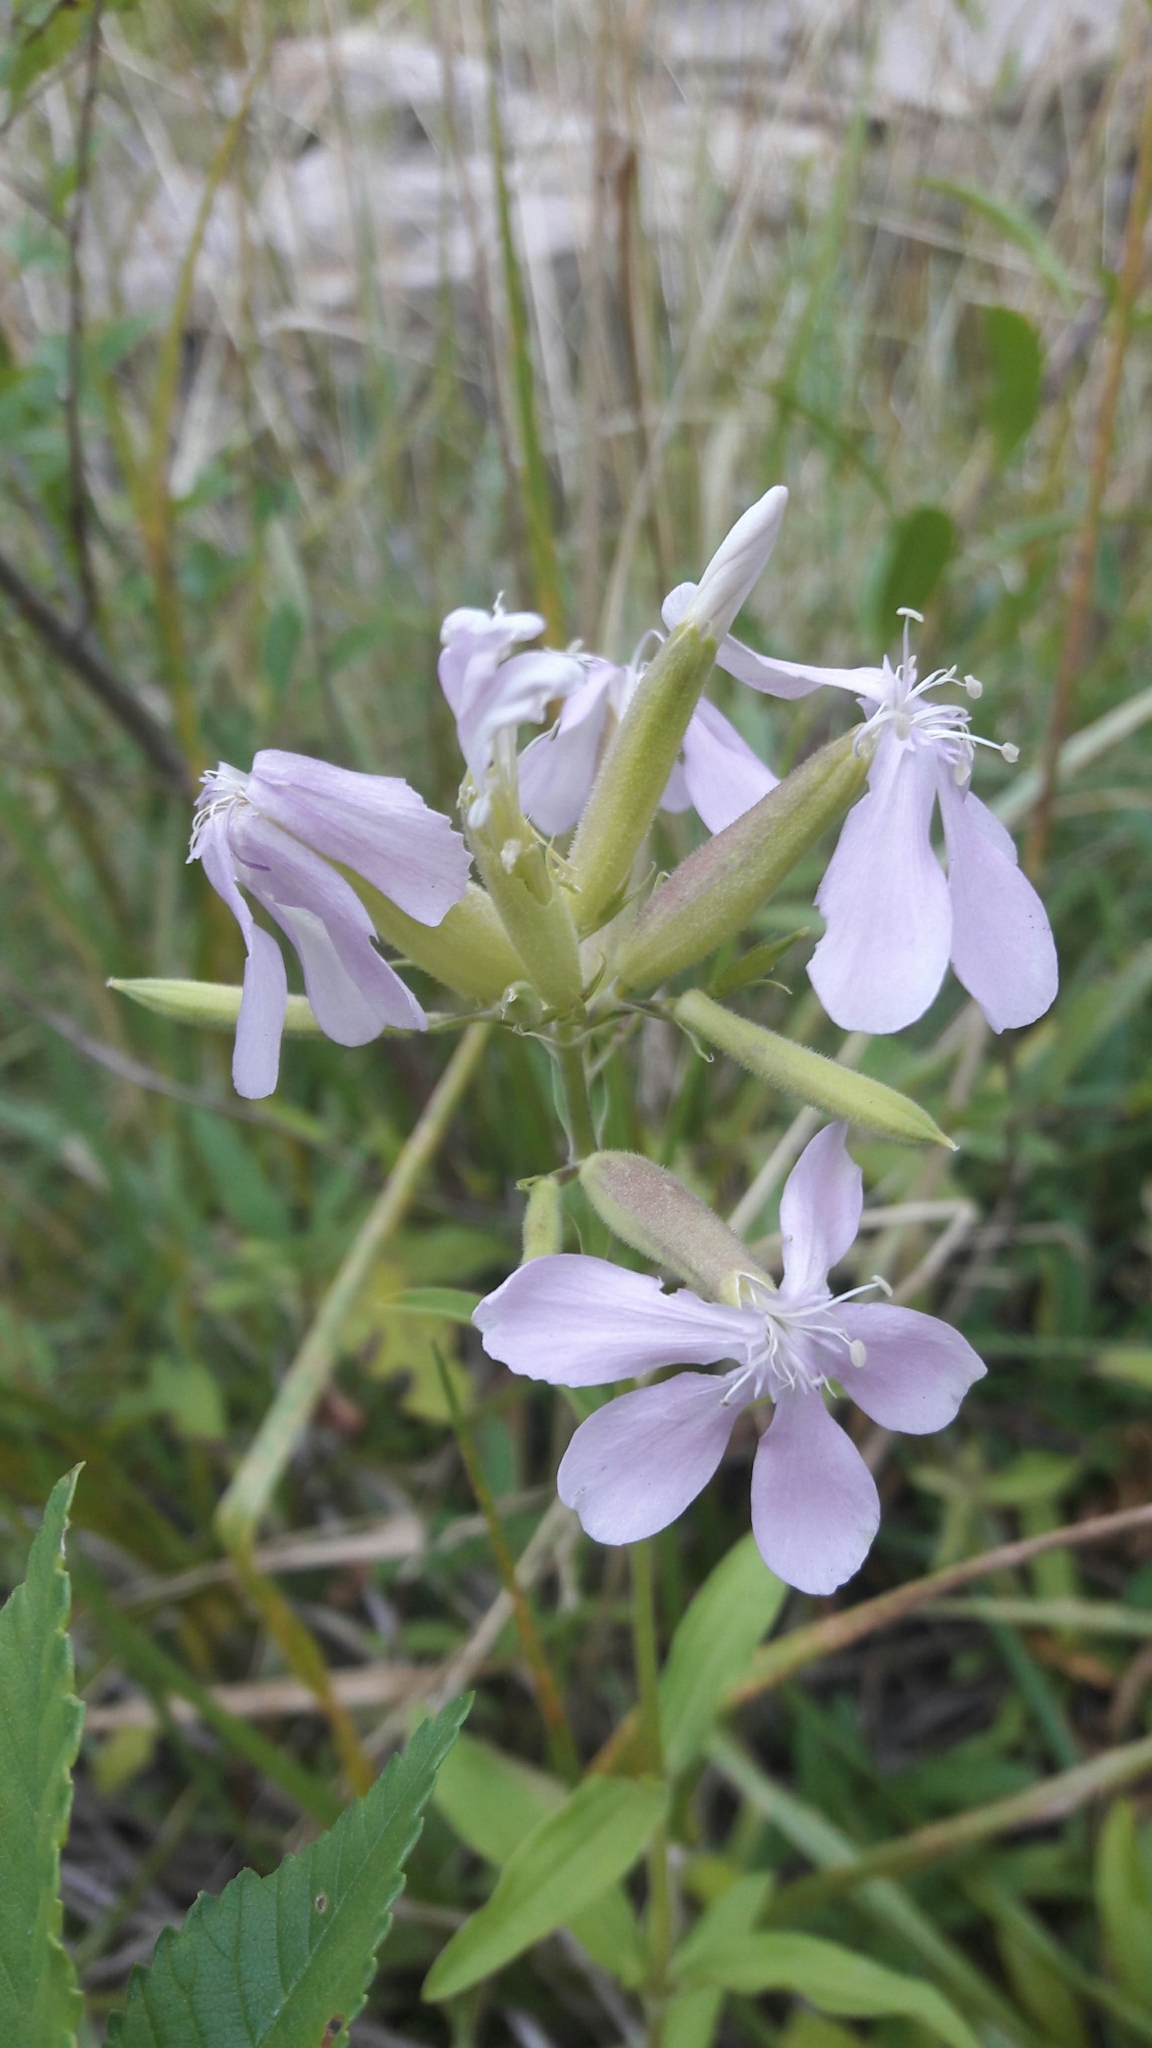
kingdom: Plantae
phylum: Tracheophyta
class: Magnoliopsida
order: Caryophyllales
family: Caryophyllaceae
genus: Saponaria
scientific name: Saponaria officinalis
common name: Soapwort
